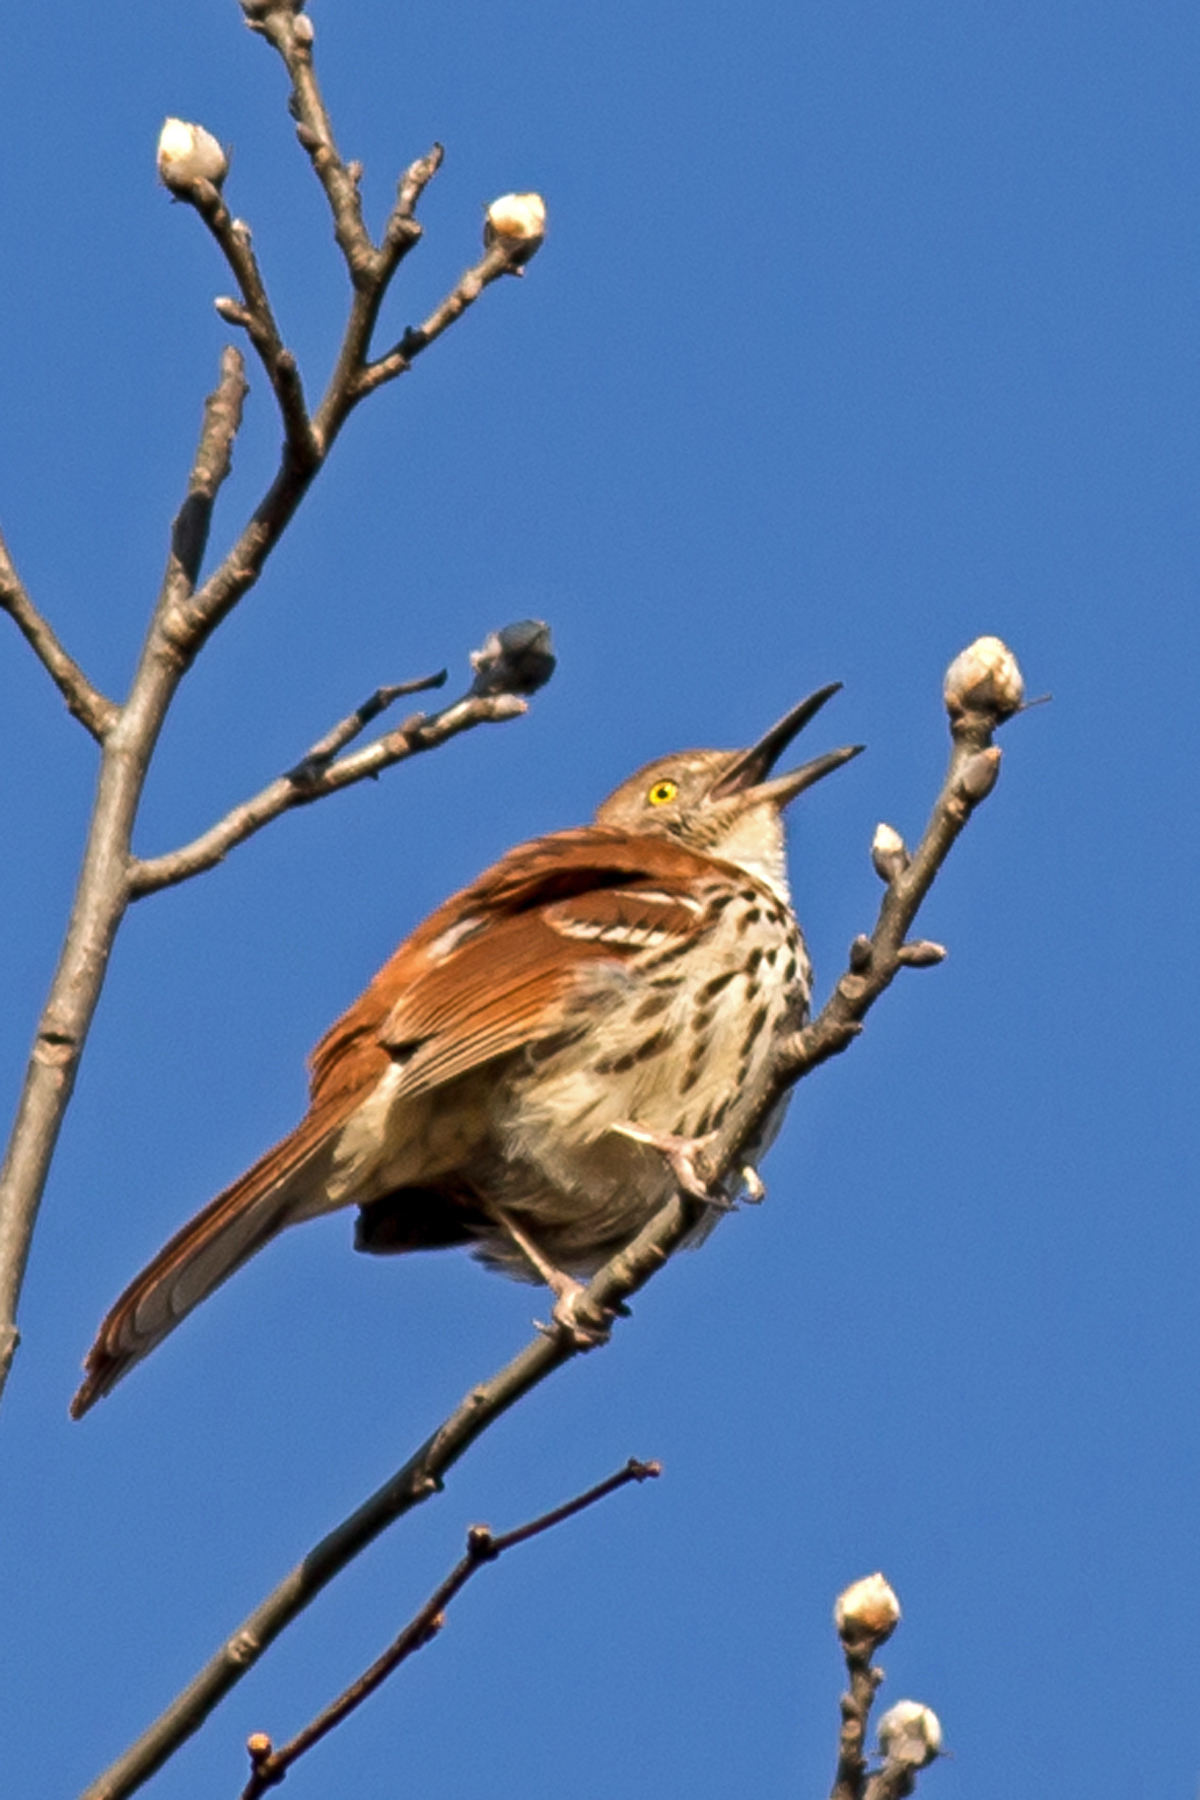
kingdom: Animalia
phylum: Chordata
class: Aves
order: Passeriformes
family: Mimidae
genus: Toxostoma
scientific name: Toxostoma rufum
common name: Brown thrasher
